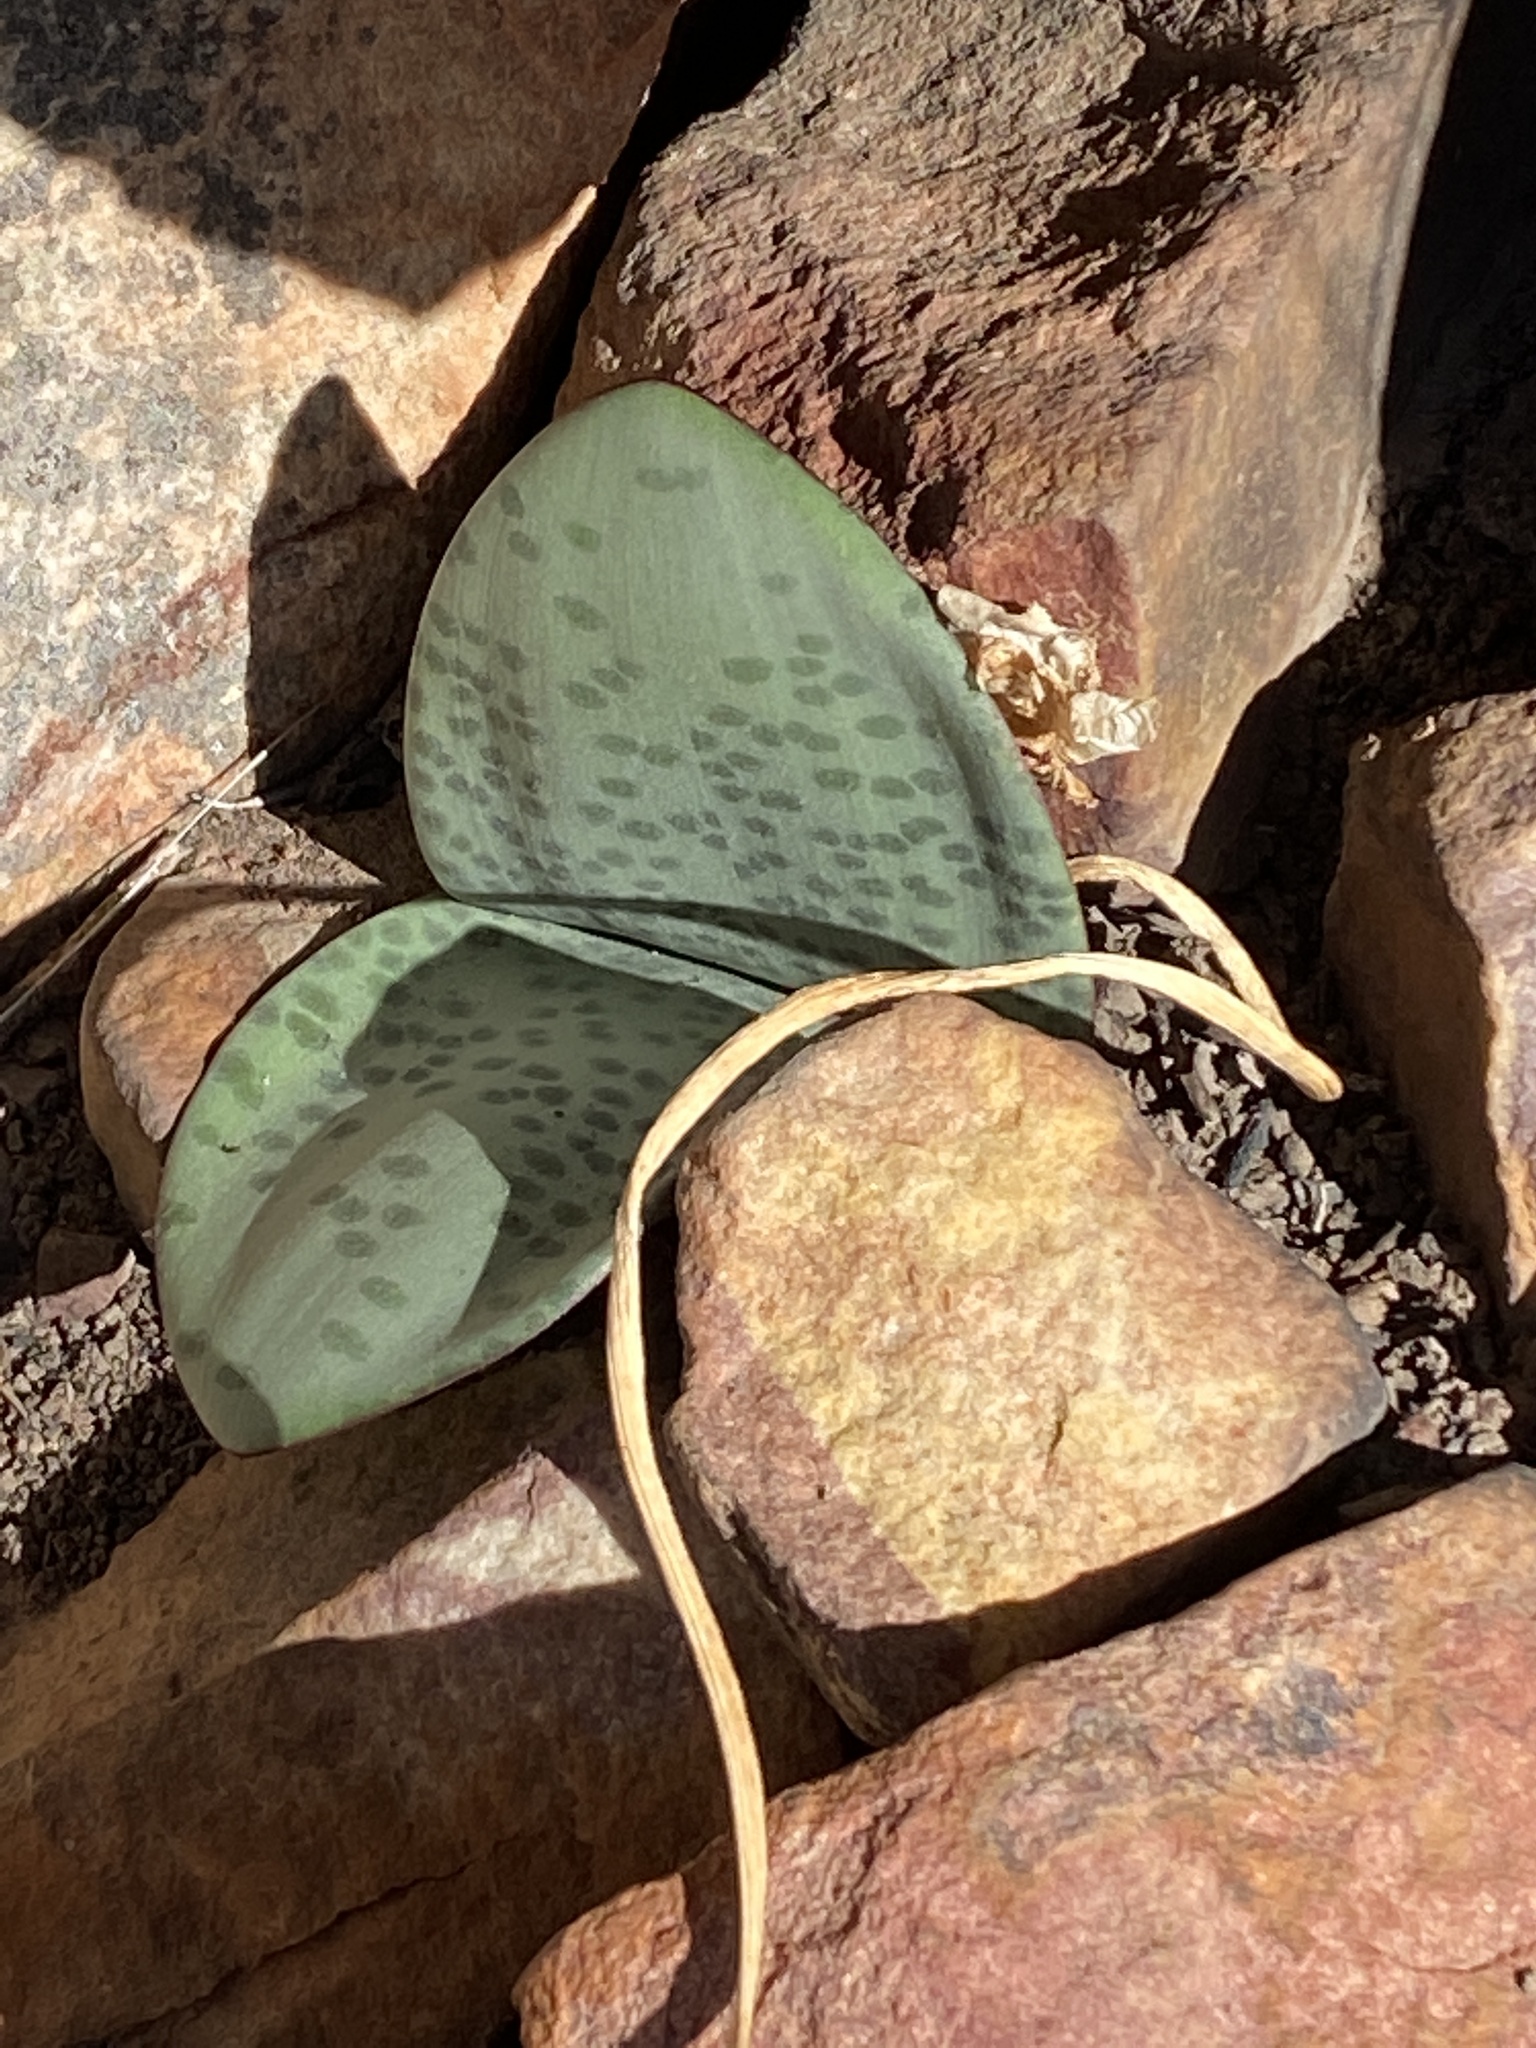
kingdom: Plantae
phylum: Tracheophyta
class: Liliopsida
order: Asparagales
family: Amaryllidaceae
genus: Haemanthus
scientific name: Haemanthus coccineus
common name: Cape-tulip
